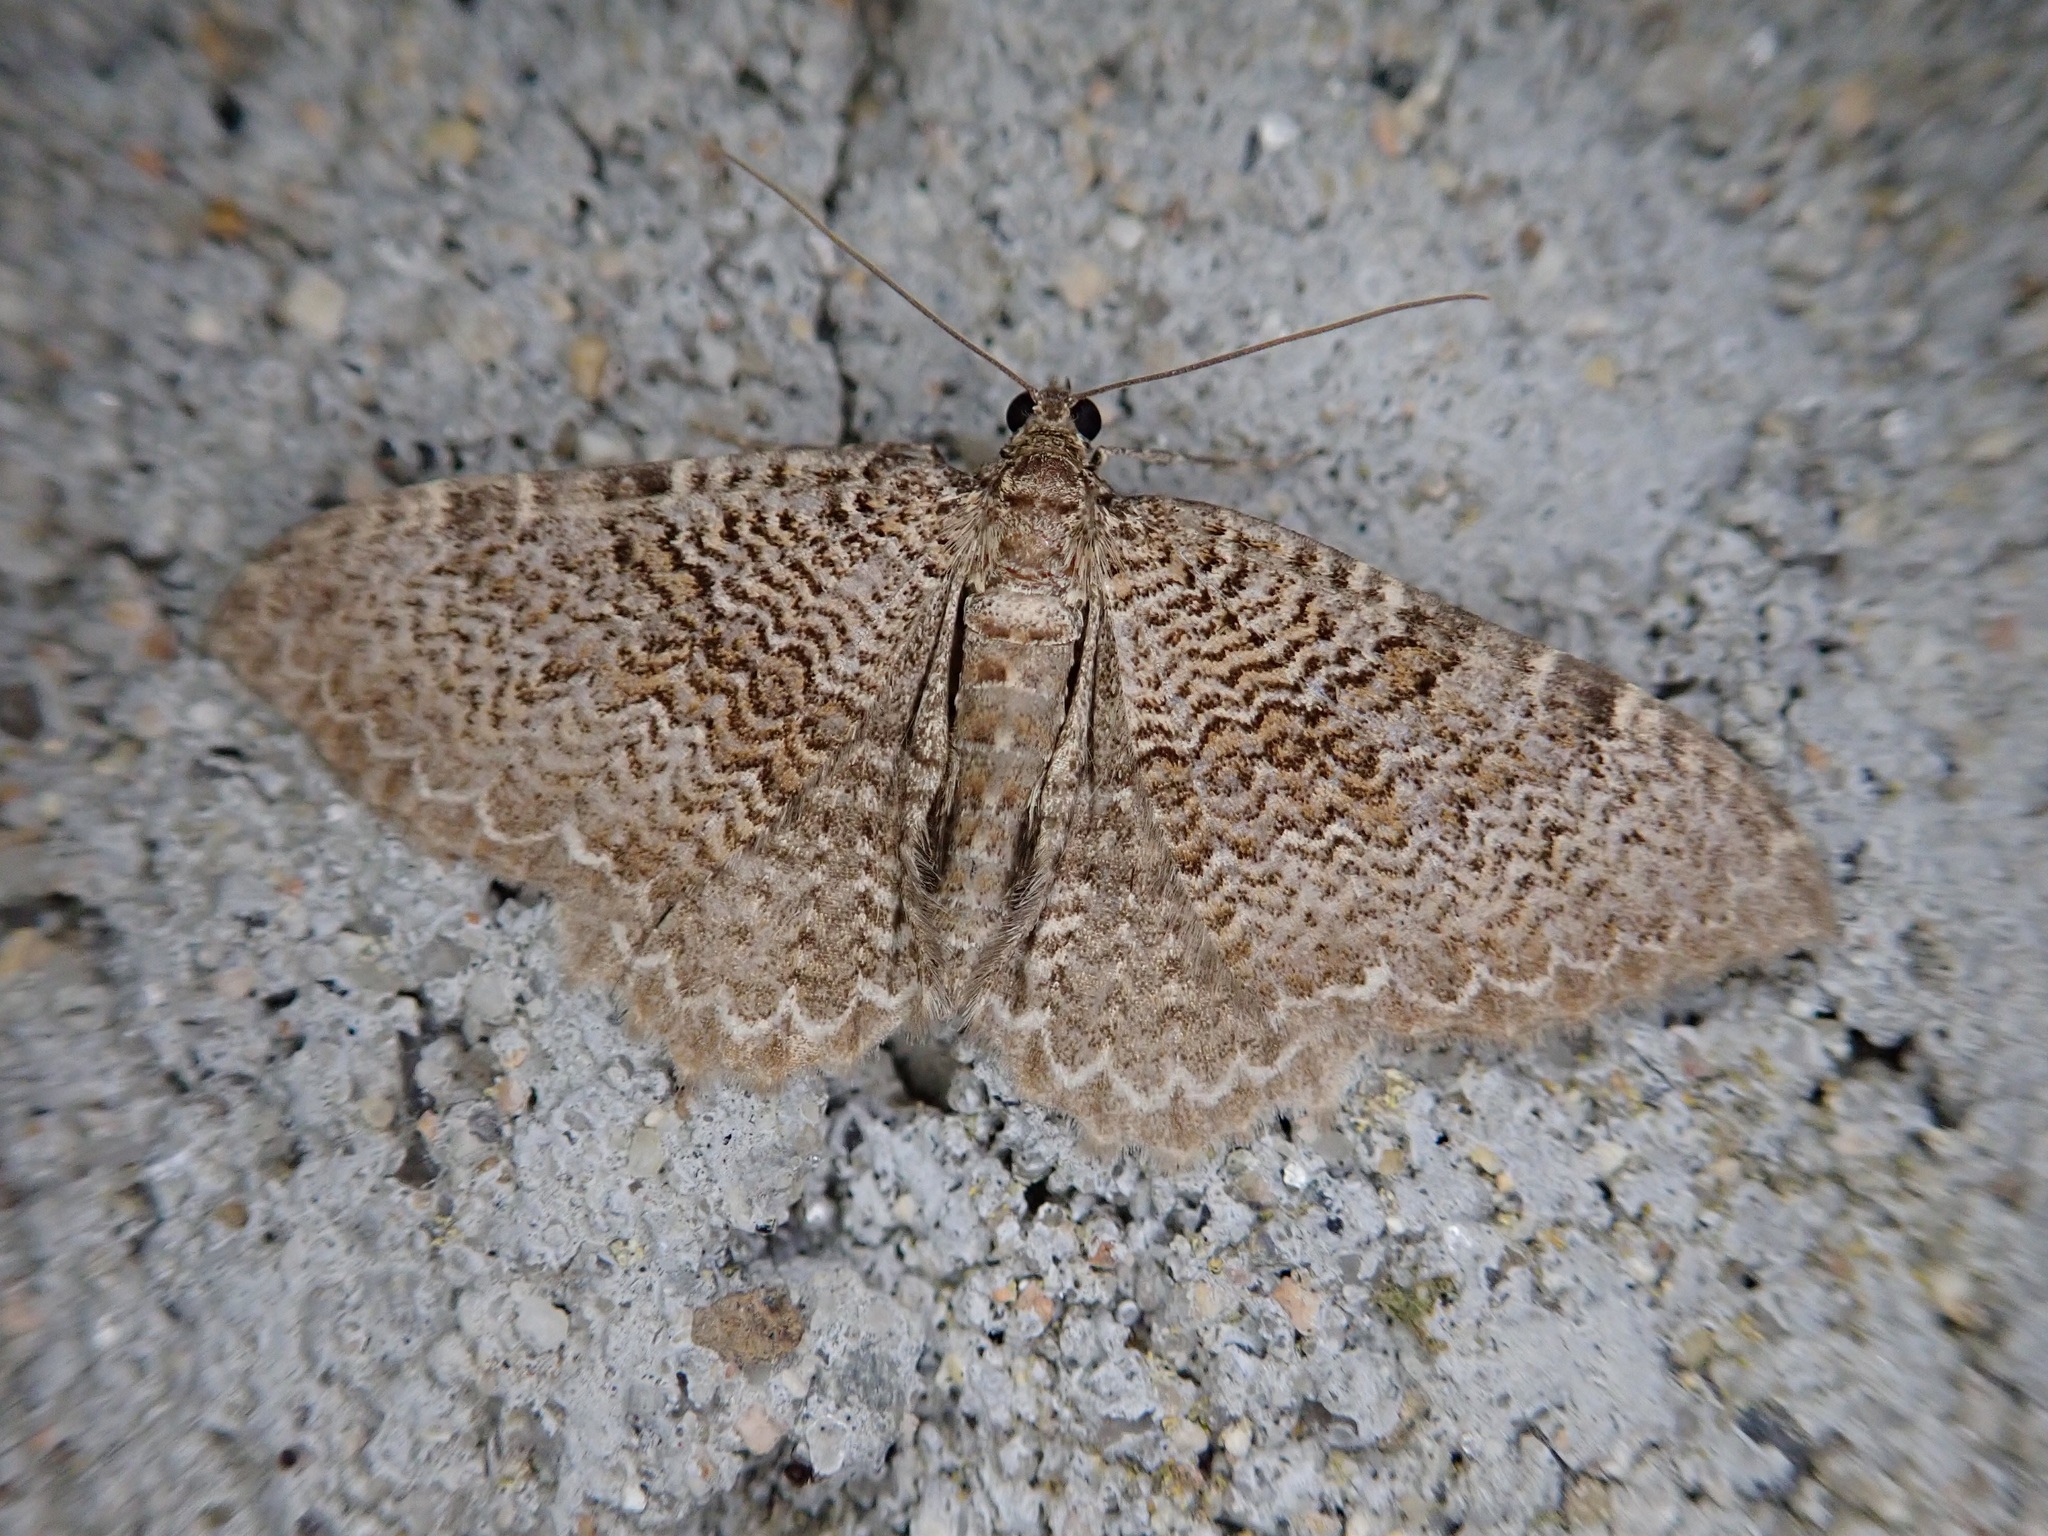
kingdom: Animalia
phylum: Arthropoda
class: Insecta
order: Lepidoptera
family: Geometridae
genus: Rheumaptera
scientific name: Rheumaptera
